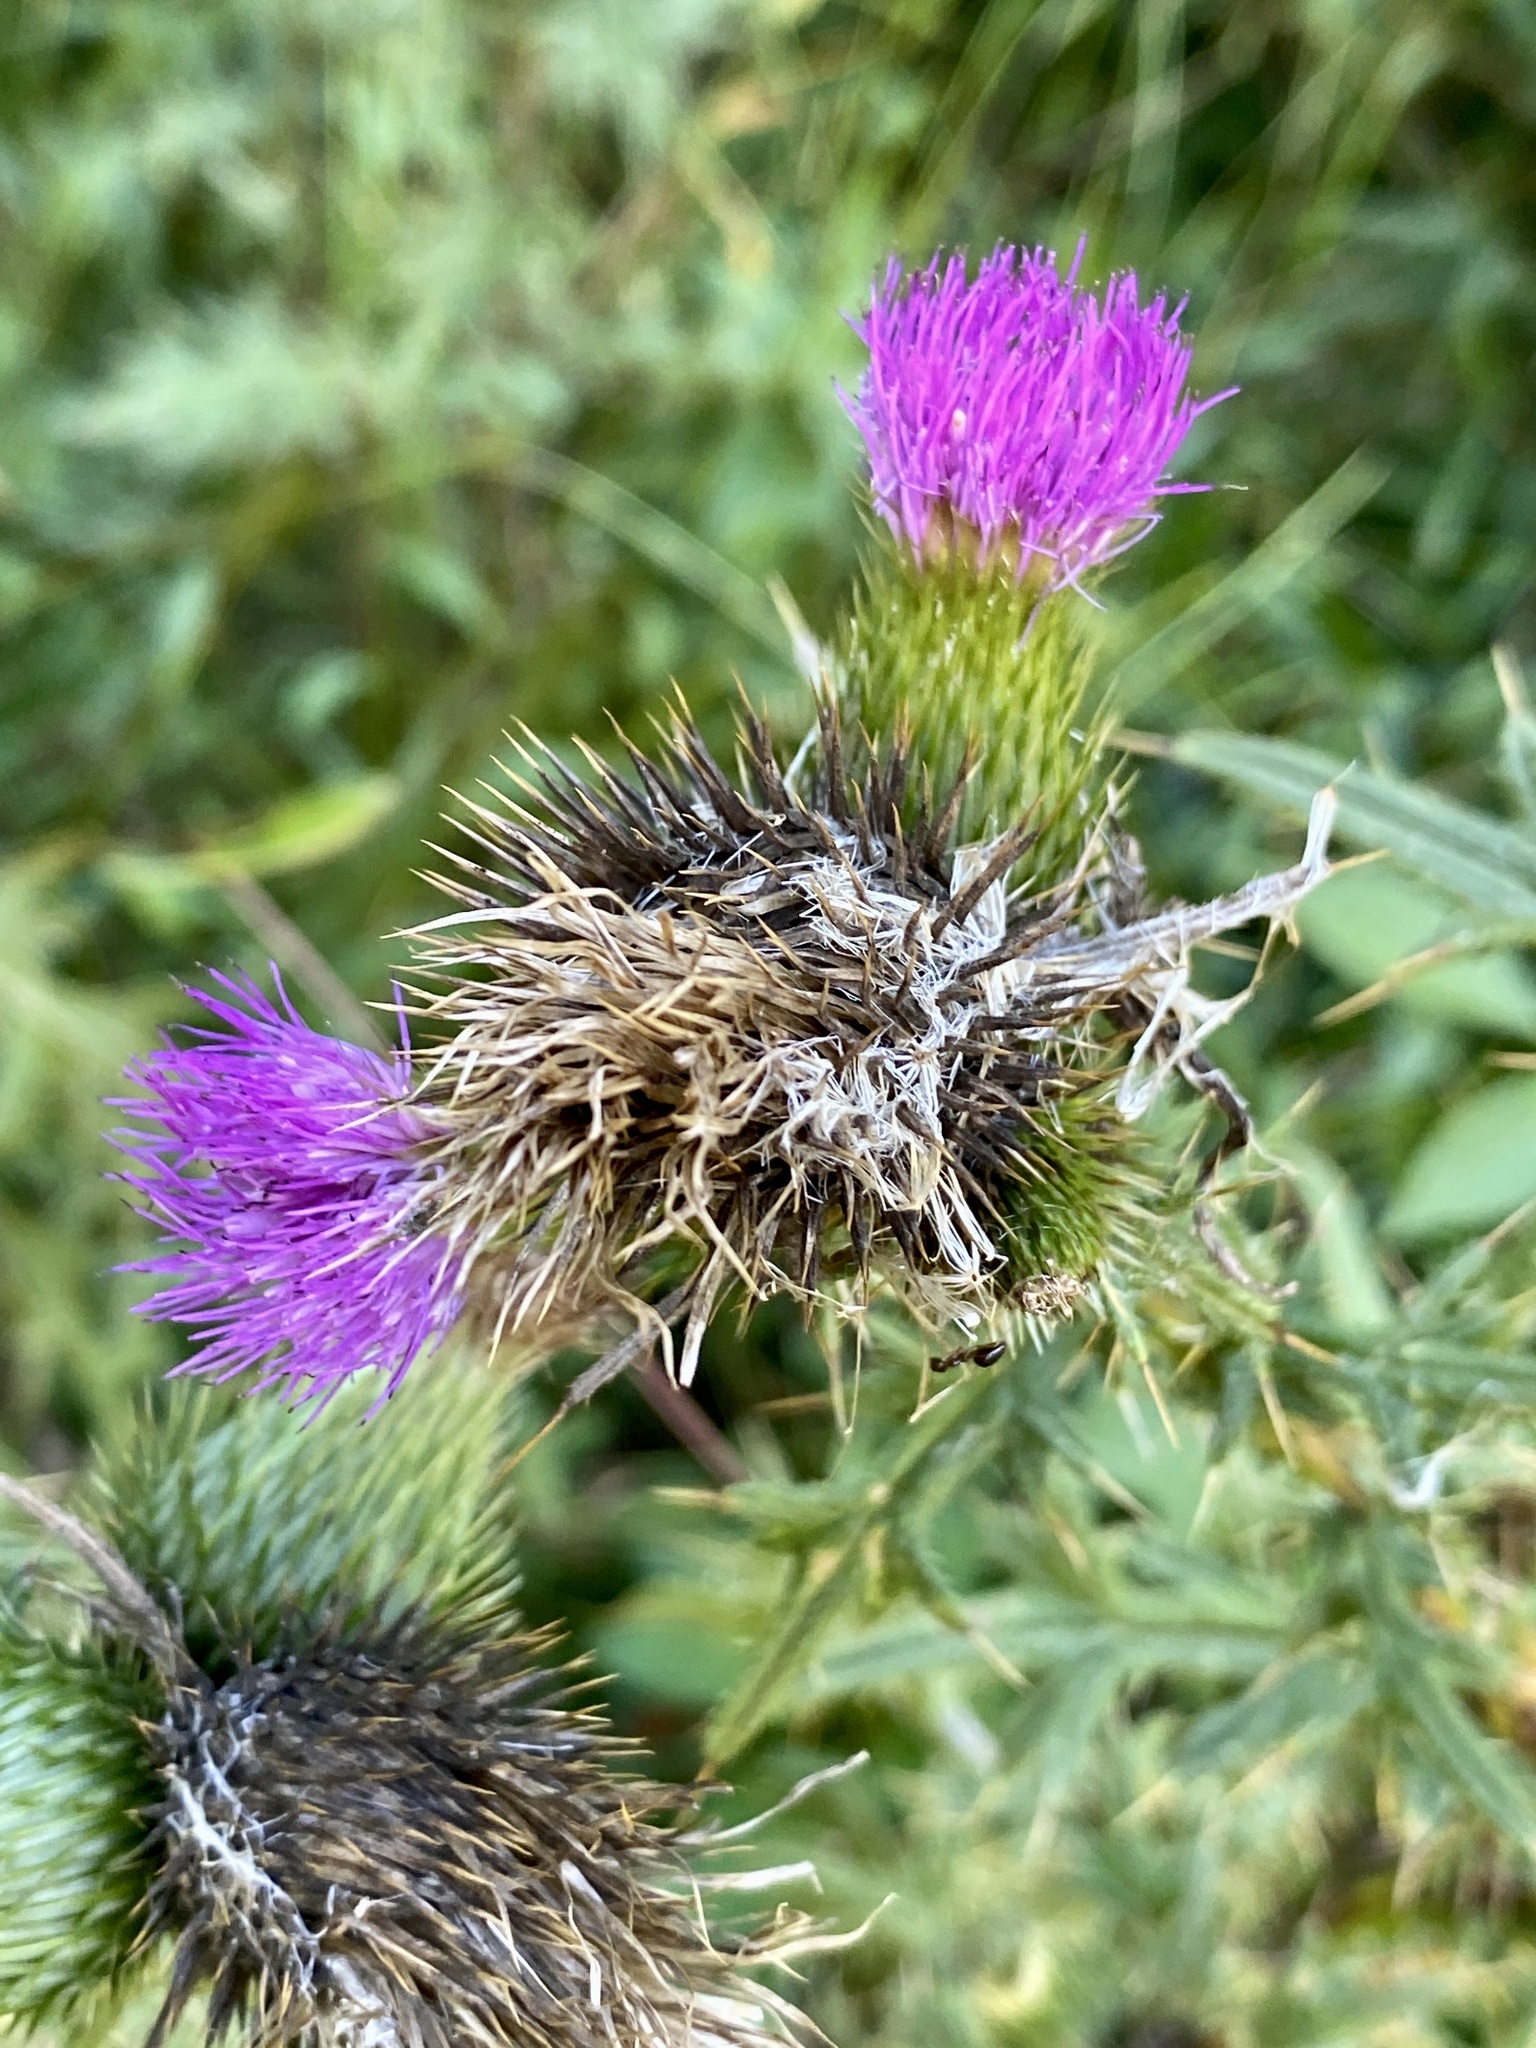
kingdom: Plantae
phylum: Tracheophyta
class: Magnoliopsida
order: Asterales
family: Asteraceae
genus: Cirsium
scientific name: Cirsium vulgare
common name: Bull thistle
